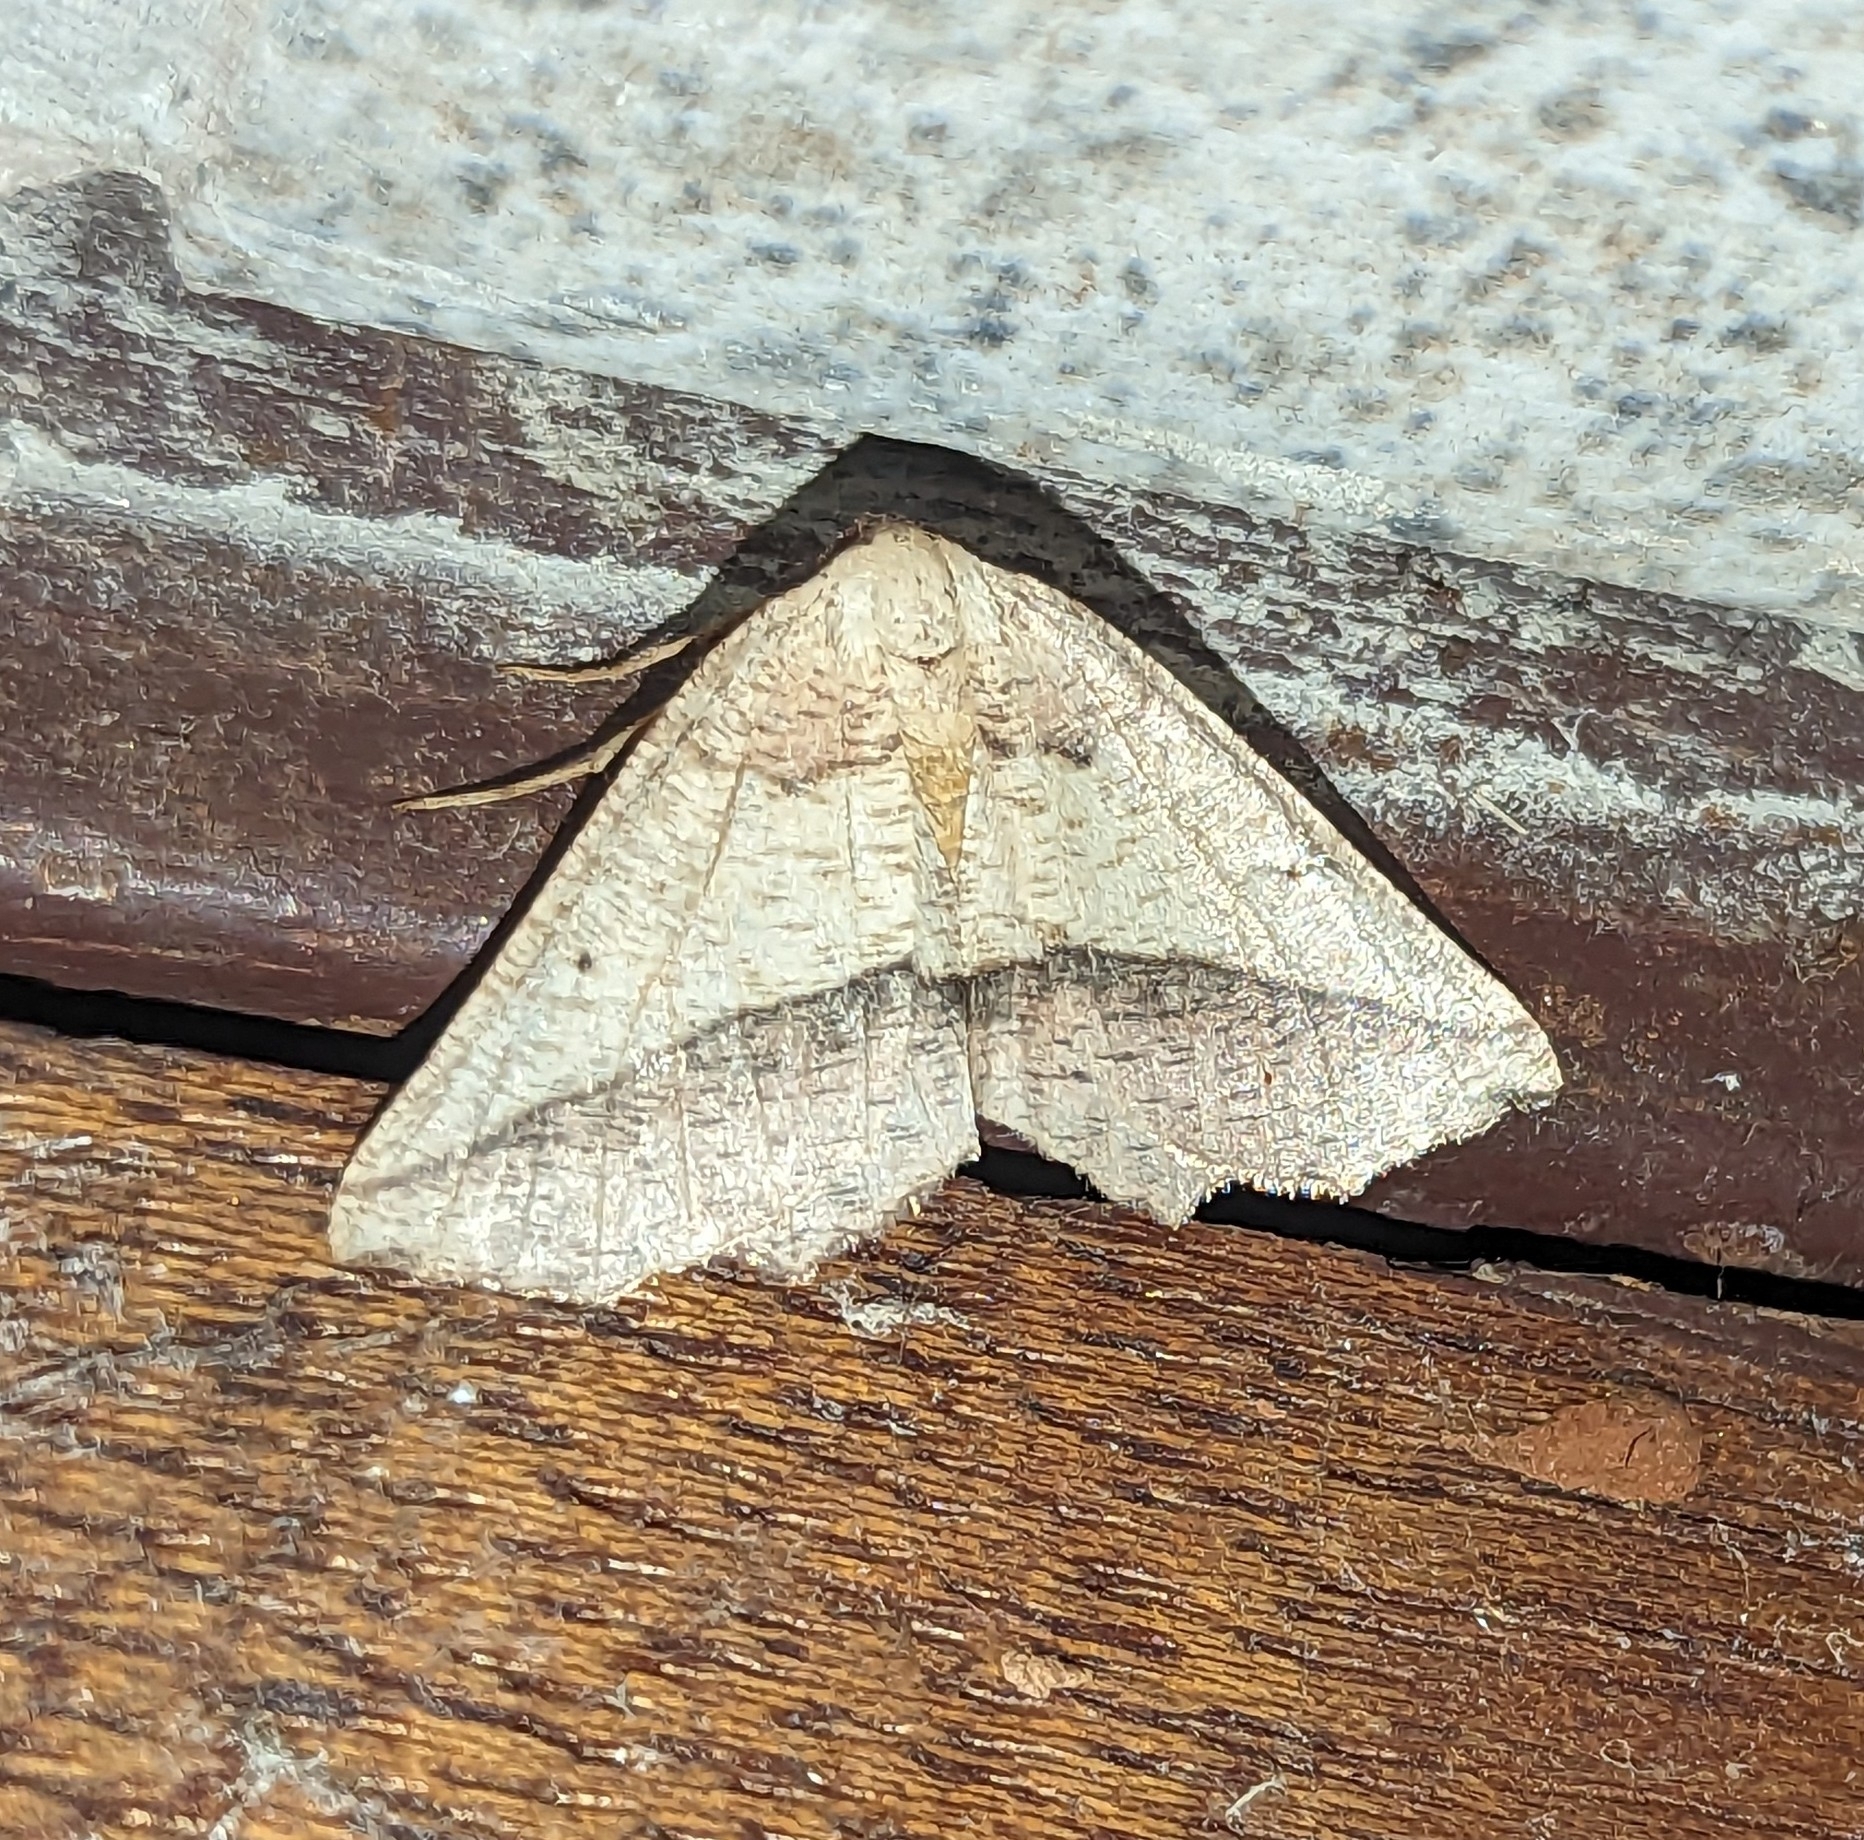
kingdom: Animalia
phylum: Arthropoda
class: Insecta
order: Lepidoptera
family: Geometridae
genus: Drepanogynis
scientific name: Drepanogynis tripartita
